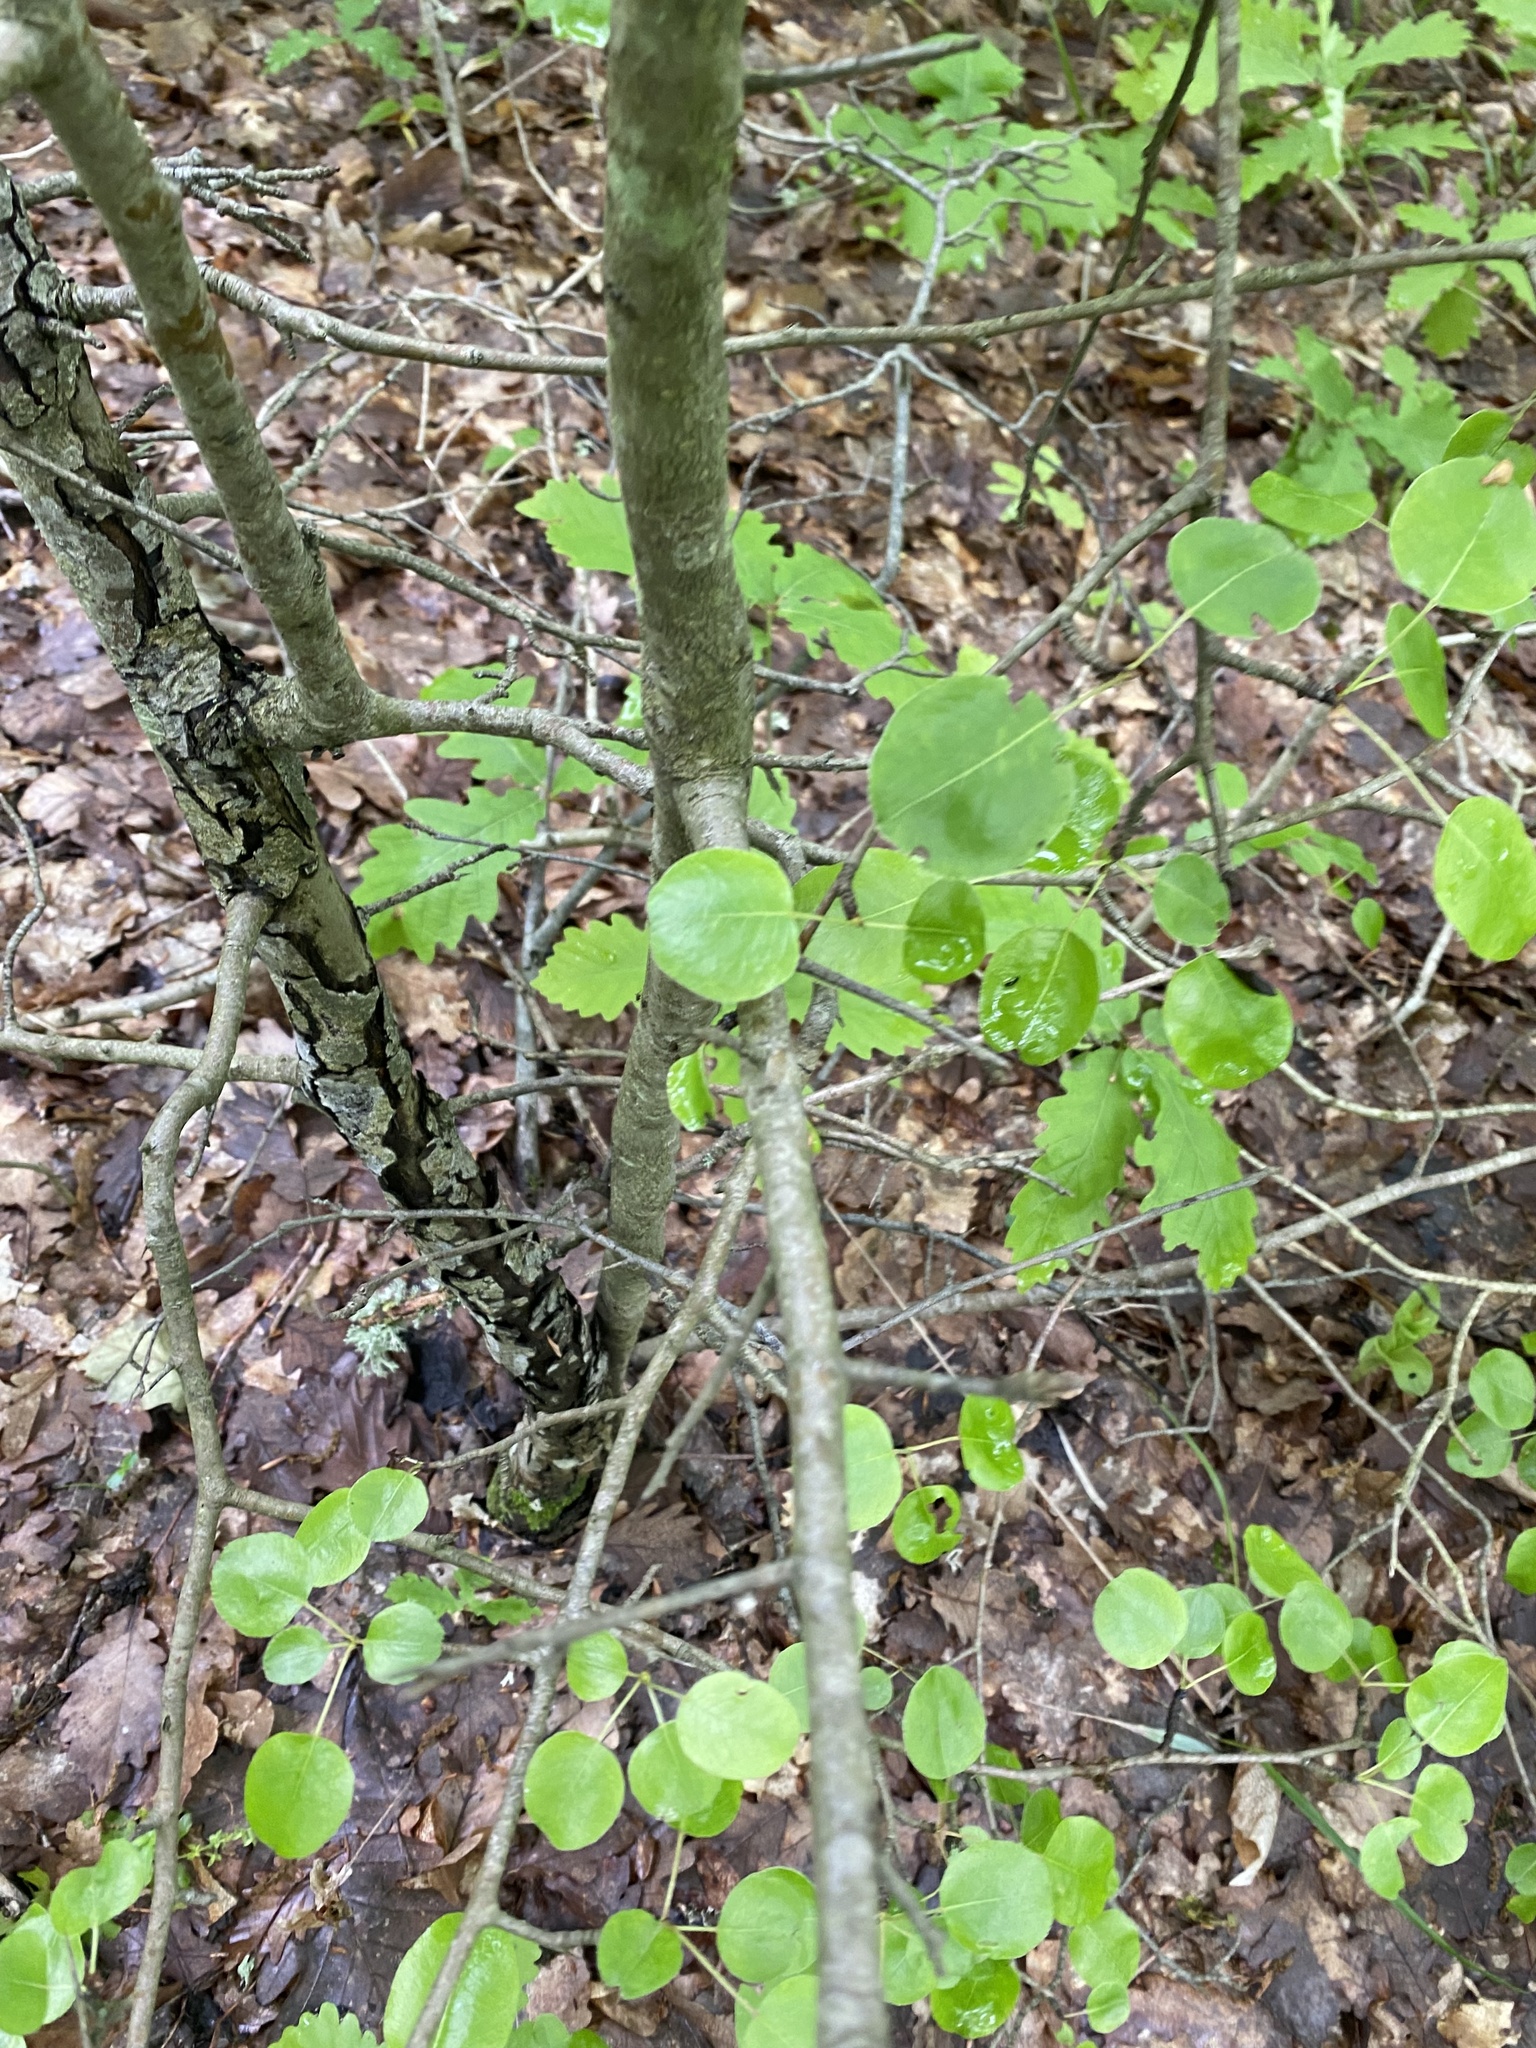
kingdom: Plantae
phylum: Tracheophyta
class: Magnoliopsida
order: Rosales
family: Rosaceae
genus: Pyrus
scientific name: Pyrus communis
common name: Pear
